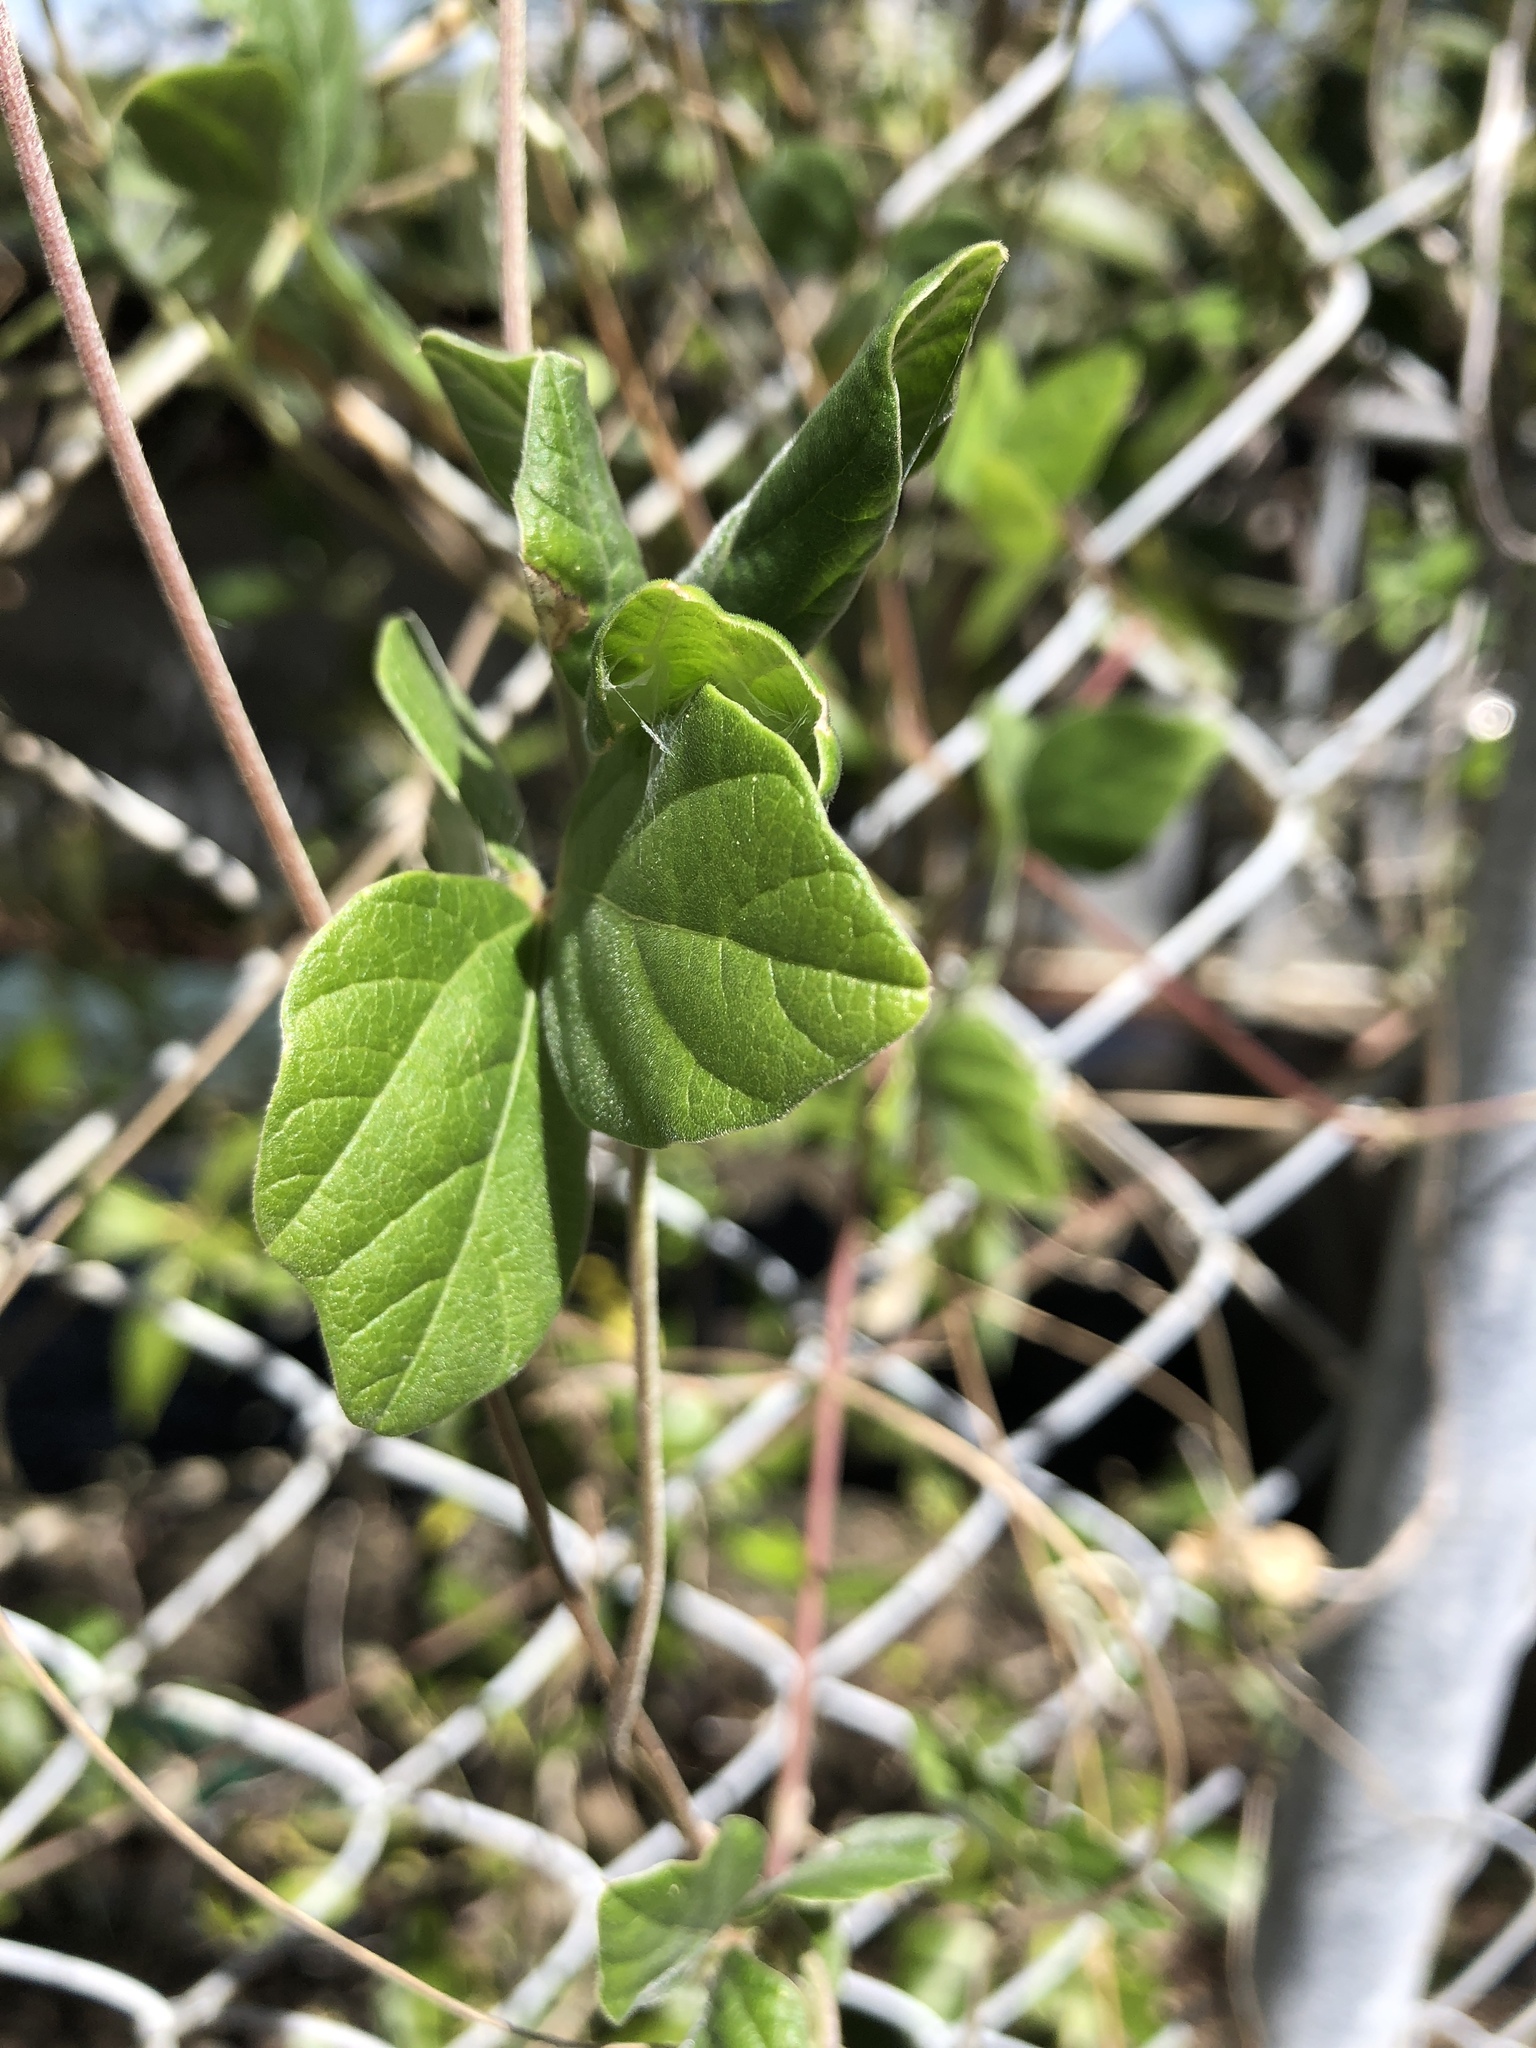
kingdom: Plantae
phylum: Tracheophyta
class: Magnoliopsida
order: Fabales
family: Fabaceae
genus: Macroptilium
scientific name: Macroptilium atropurpureum
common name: Purple bushbean
